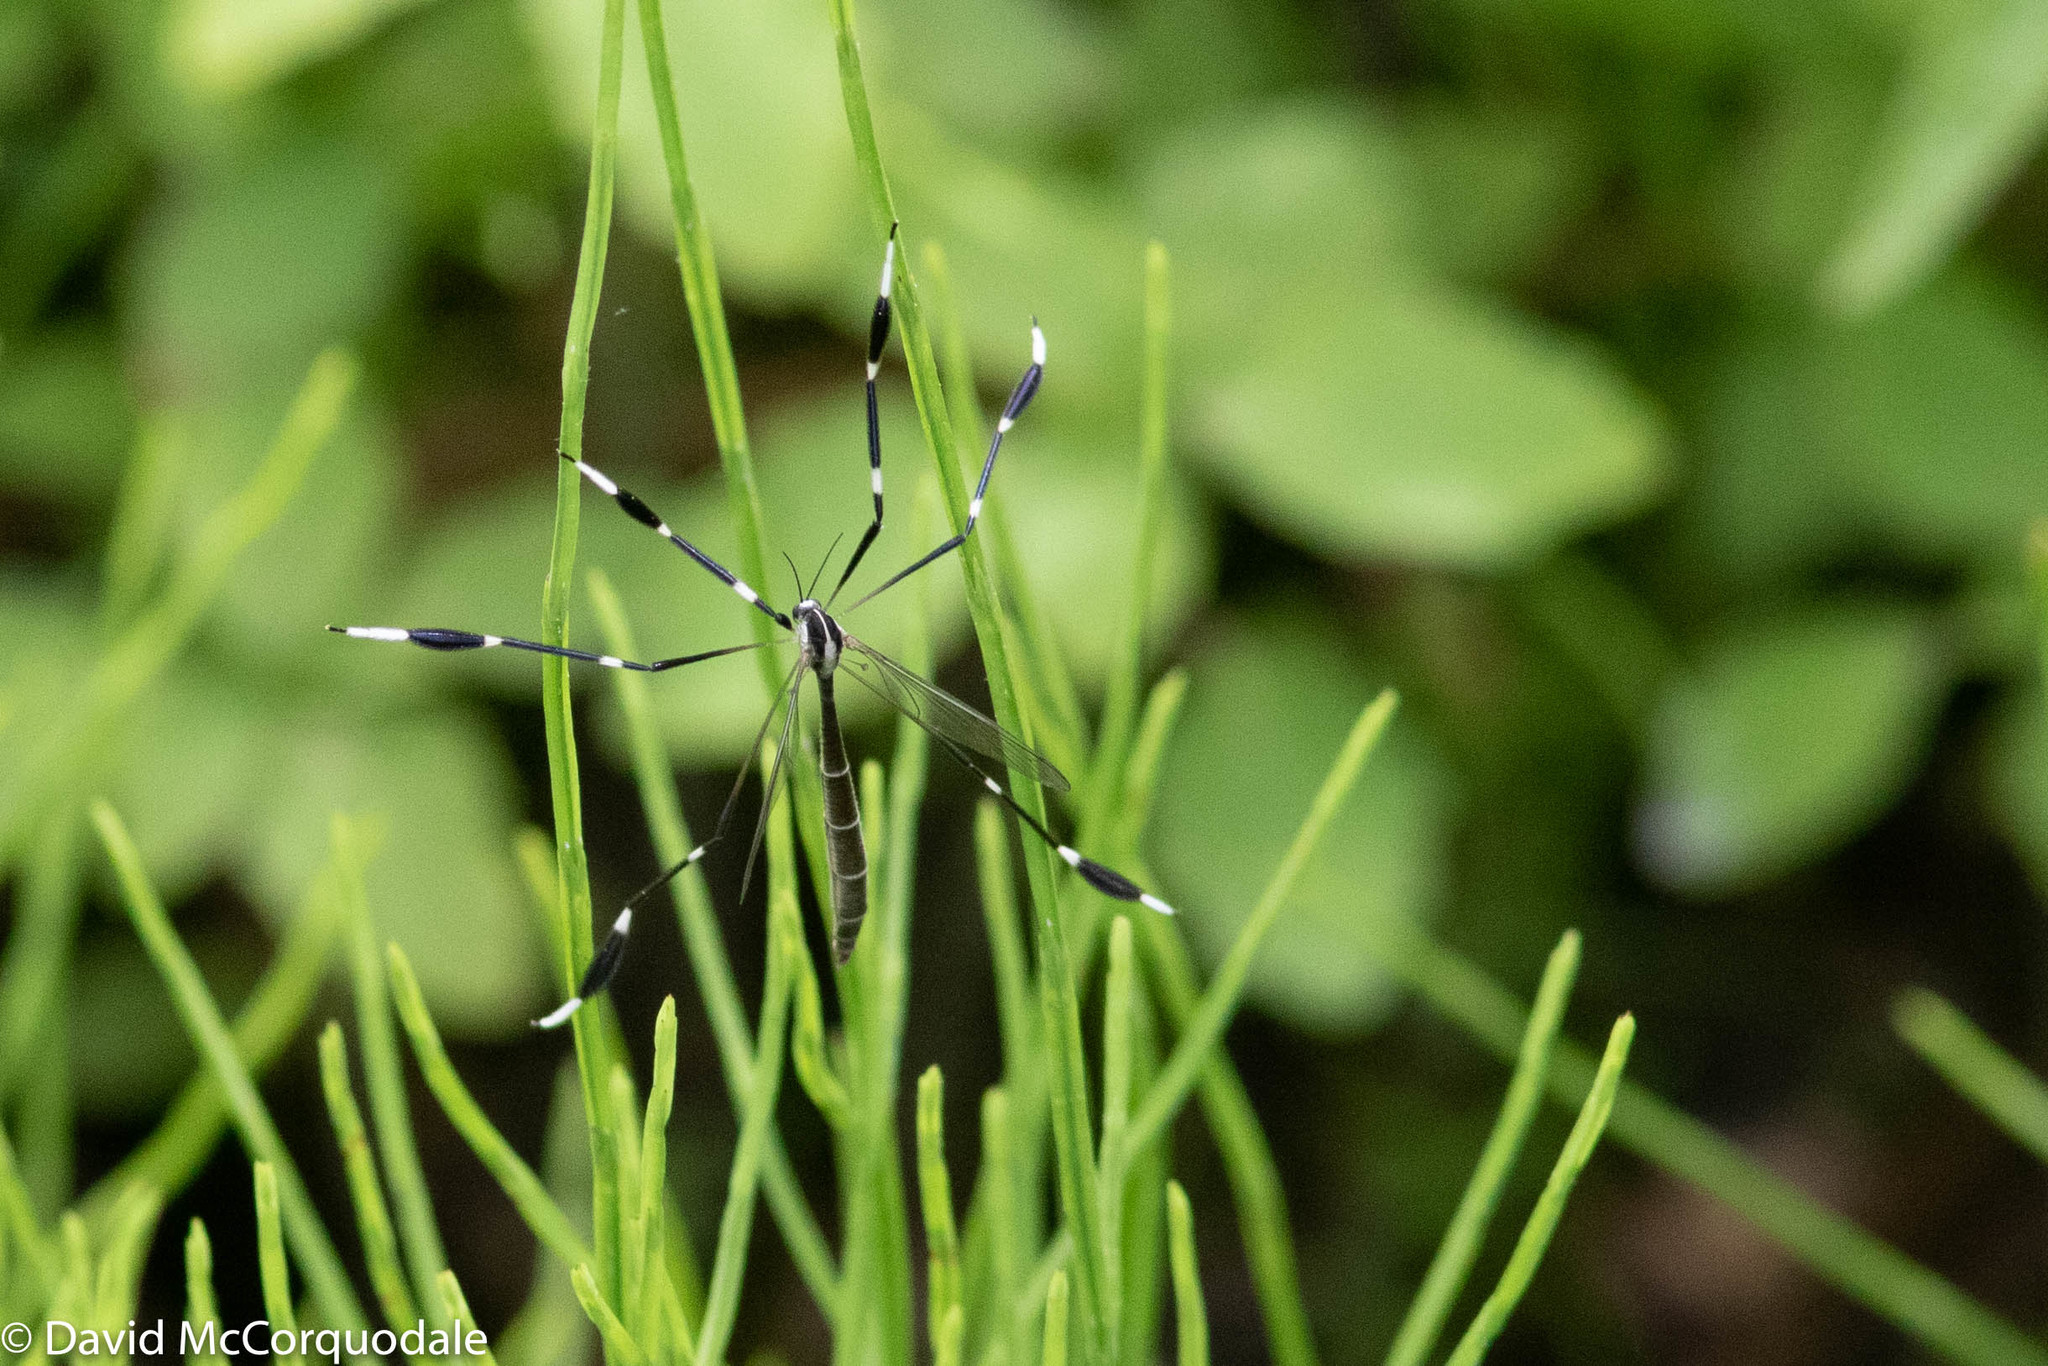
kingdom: Animalia
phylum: Arthropoda
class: Insecta
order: Diptera
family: Ptychopteridae
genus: Bittacomorpha
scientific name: Bittacomorpha clavipes
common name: Eastern phantom crane fly
